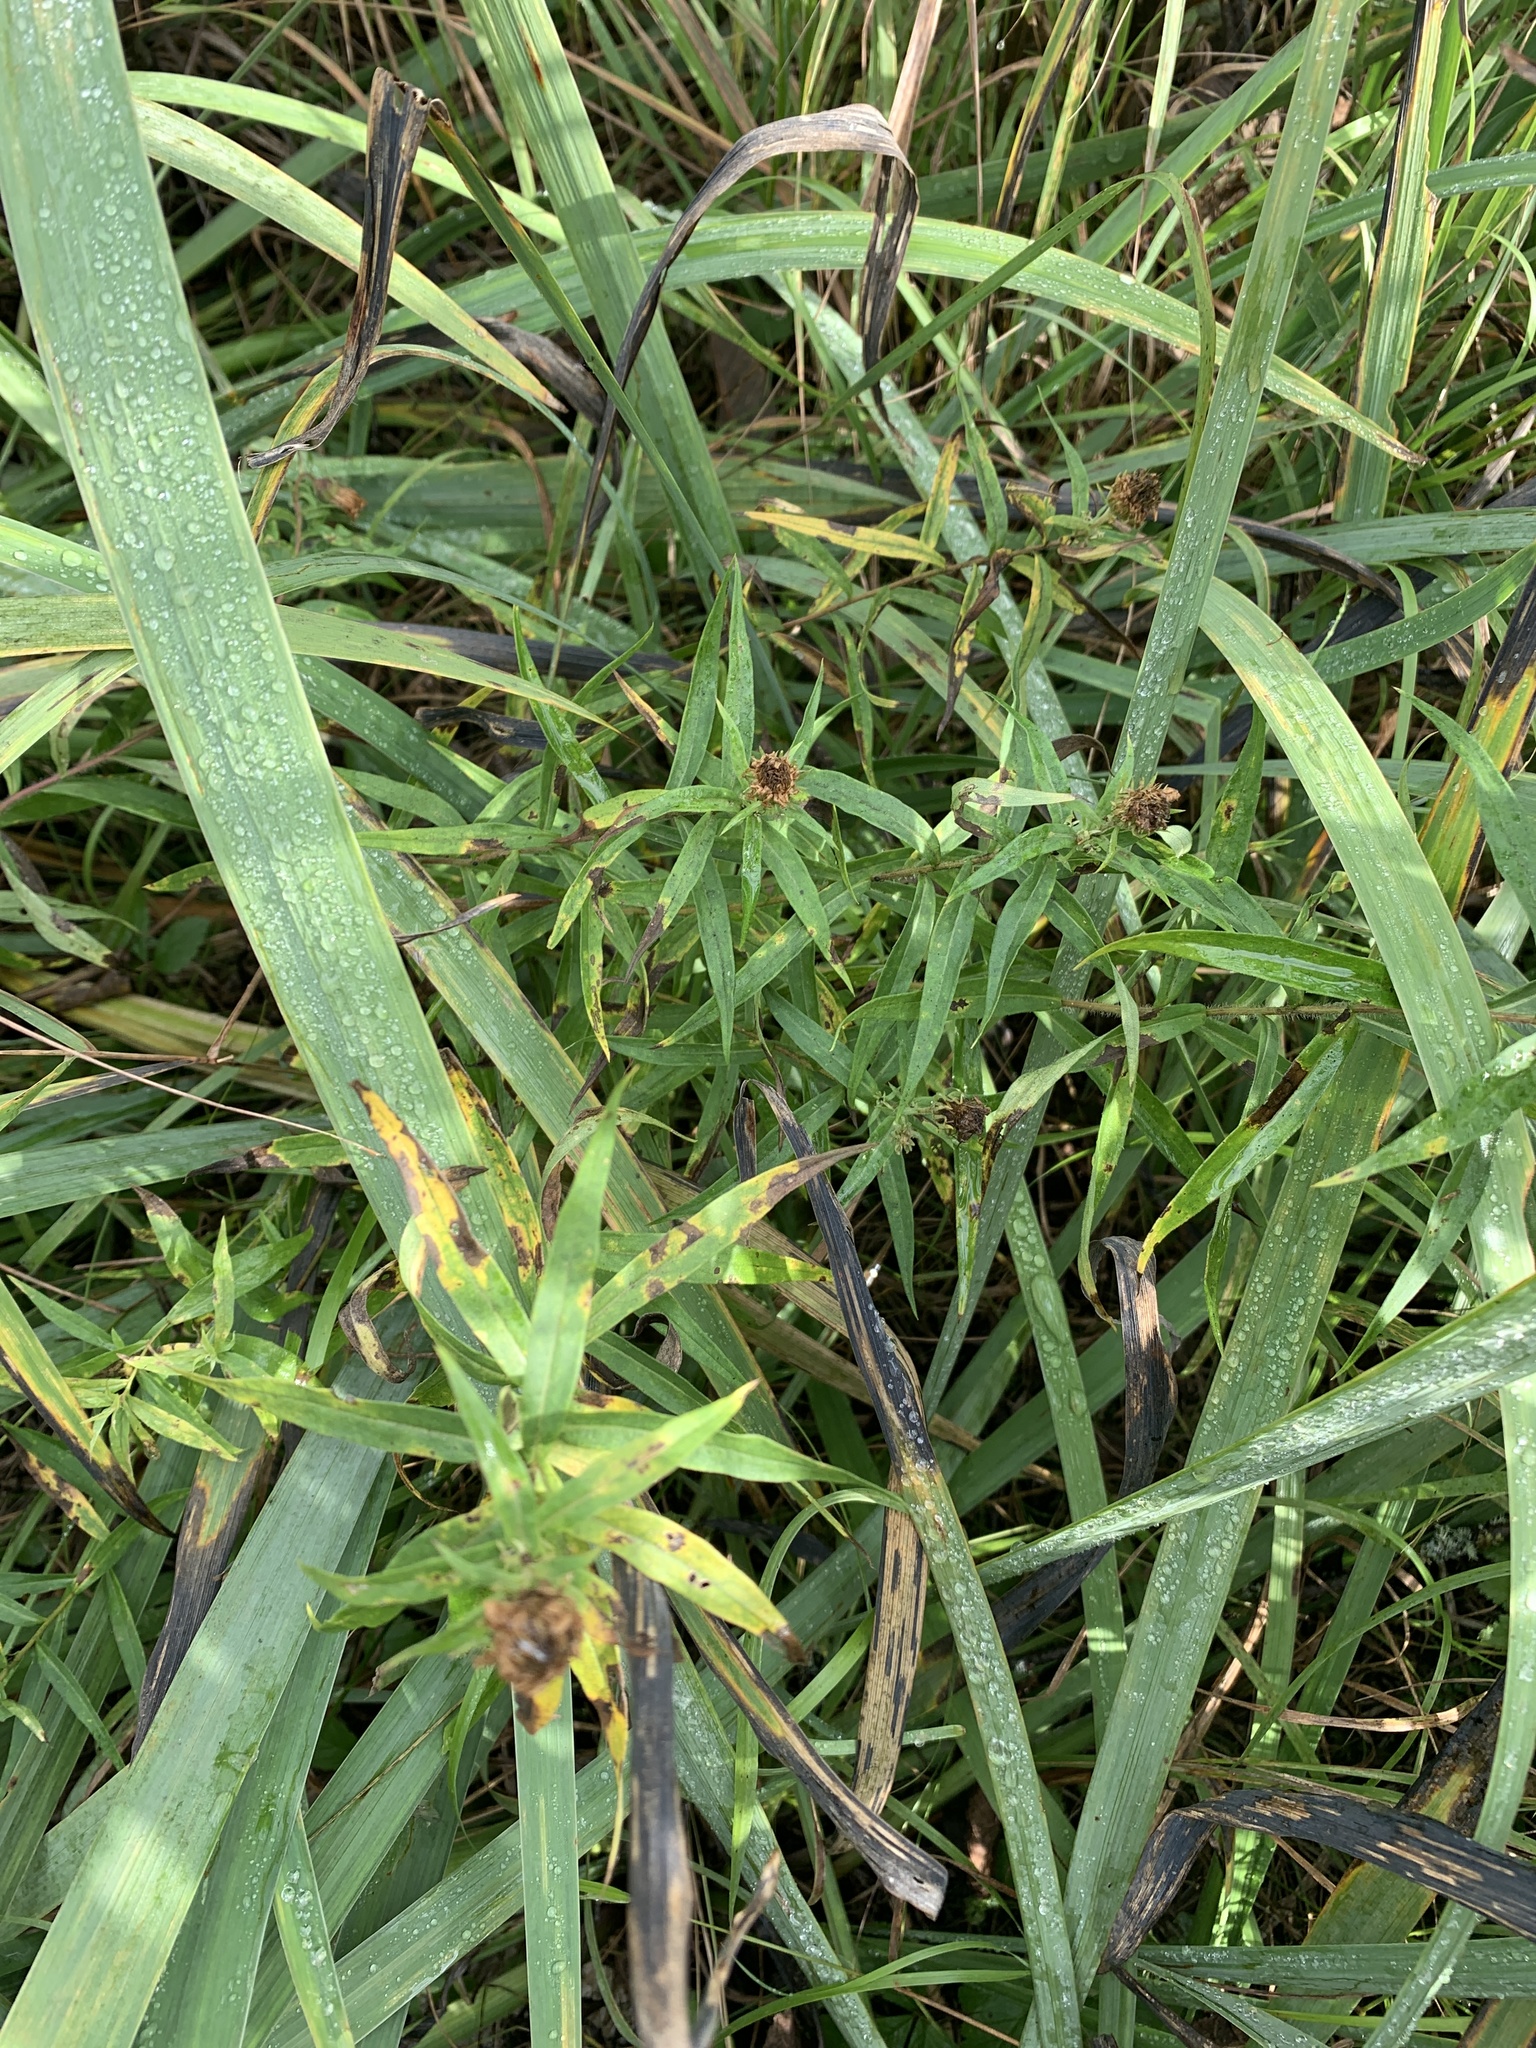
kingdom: Plantae
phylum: Tracheophyta
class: Magnoliopsida
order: Asterales
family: Asteraceae
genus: Canadanthus
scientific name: Canadanthus modestus
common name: Great northern aster
